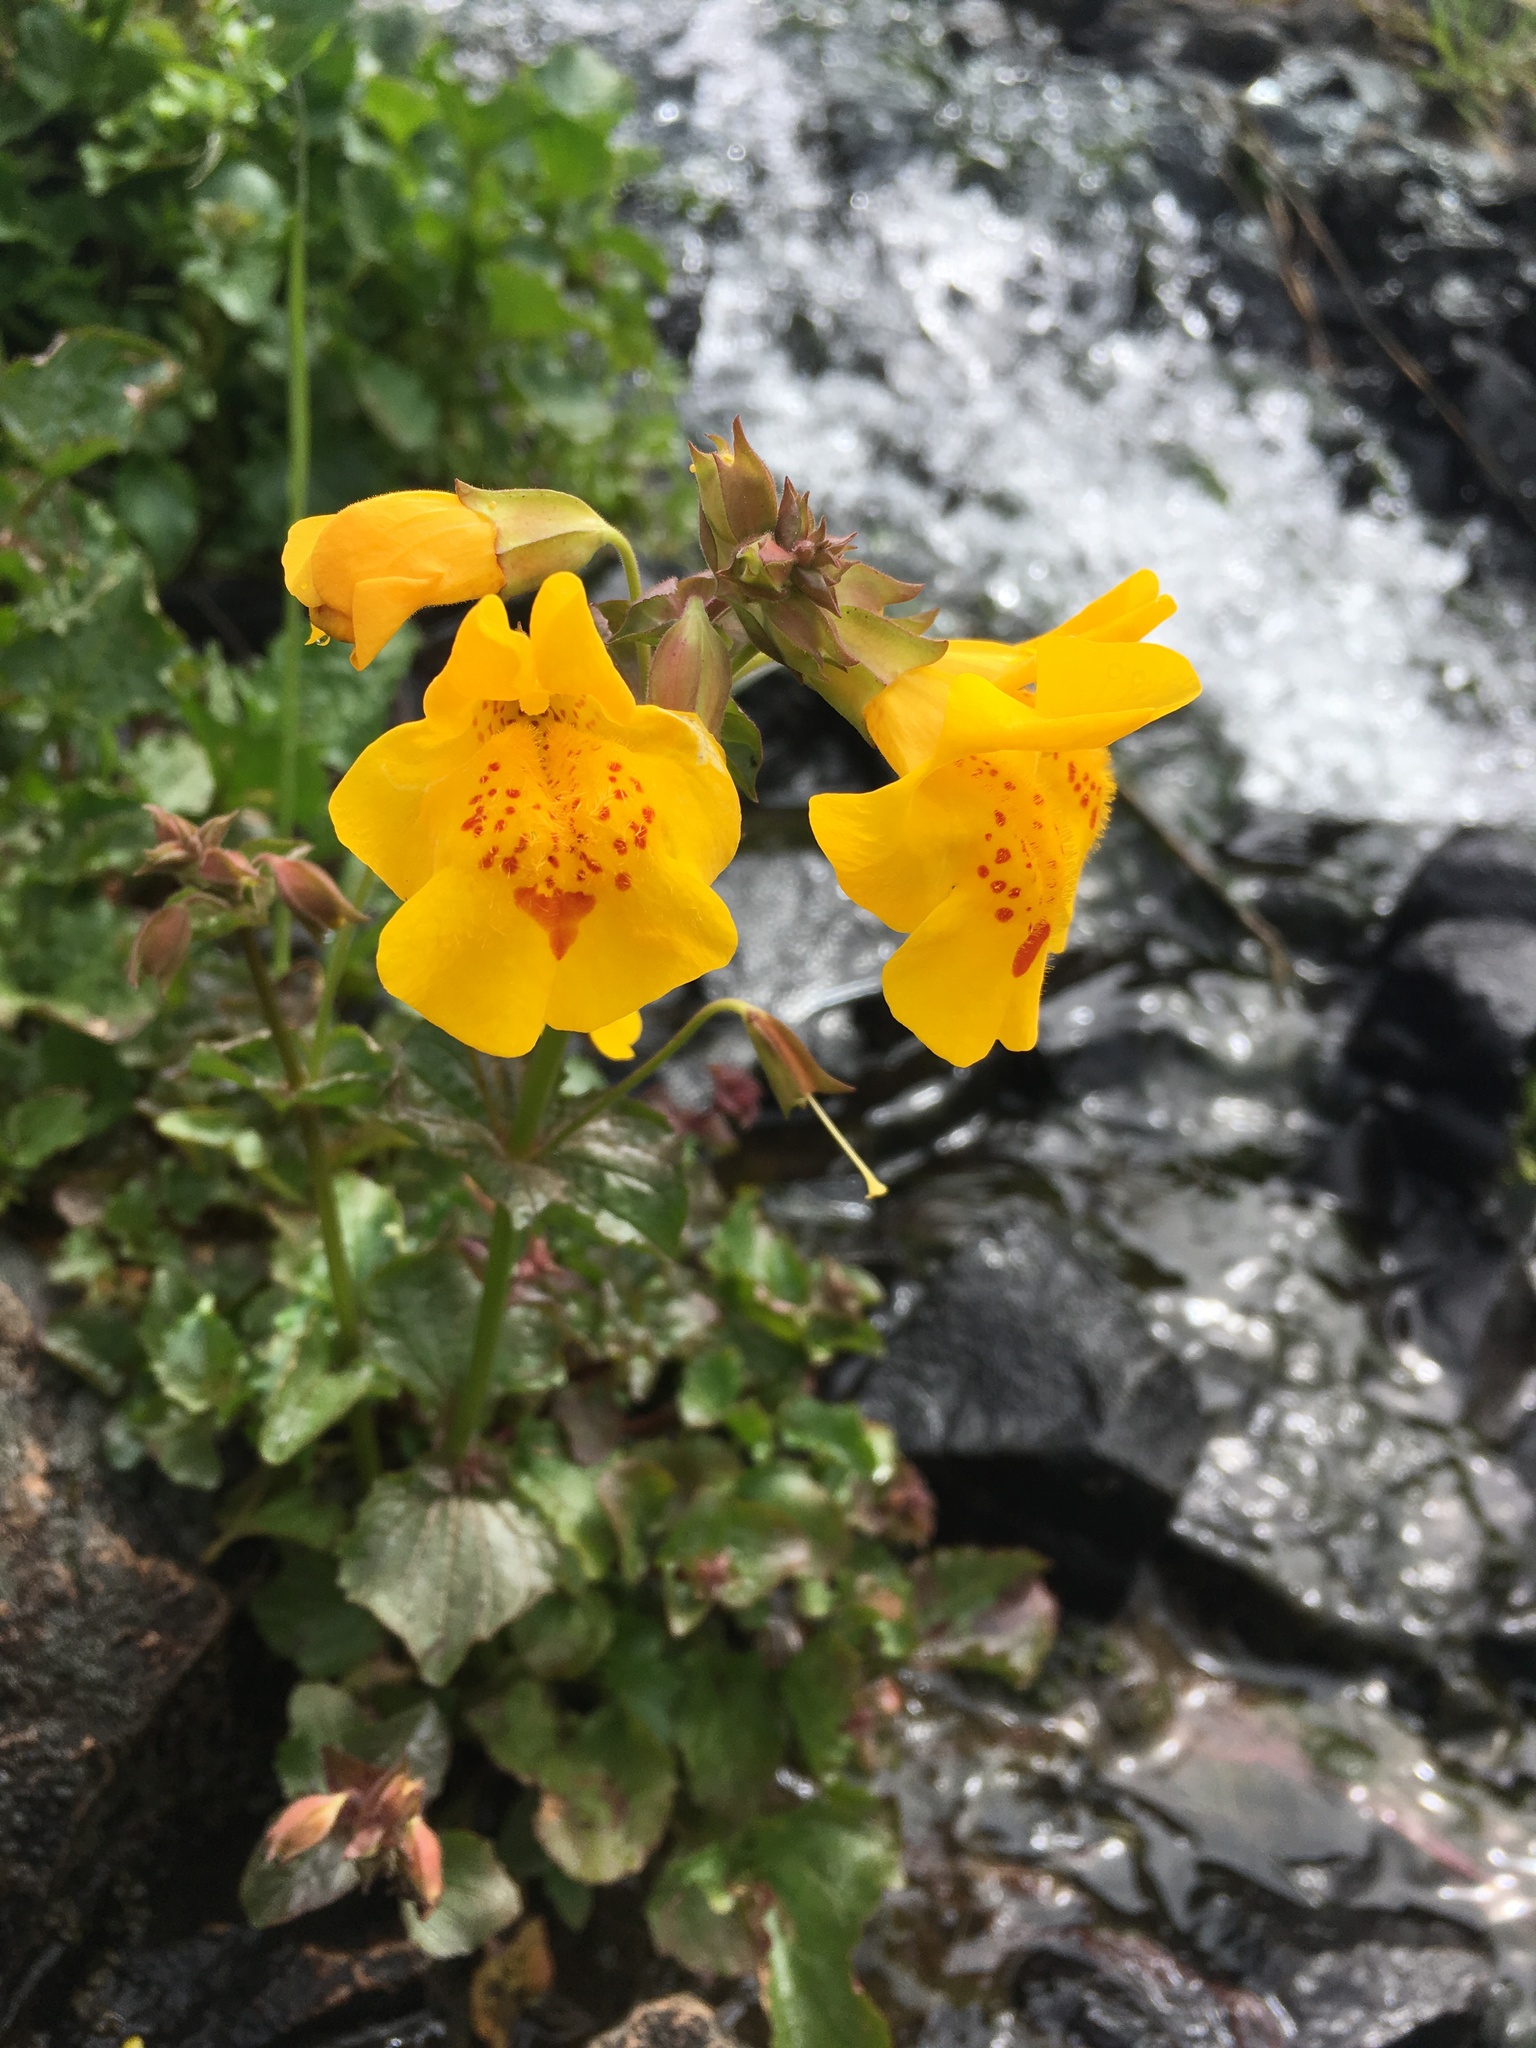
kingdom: Plantae
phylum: Tracheophyta
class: Magnoliopsida
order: Lamiales
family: Phrymaceae
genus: Erythranthe
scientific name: Erythranthe guttata
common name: Monkeyflower
